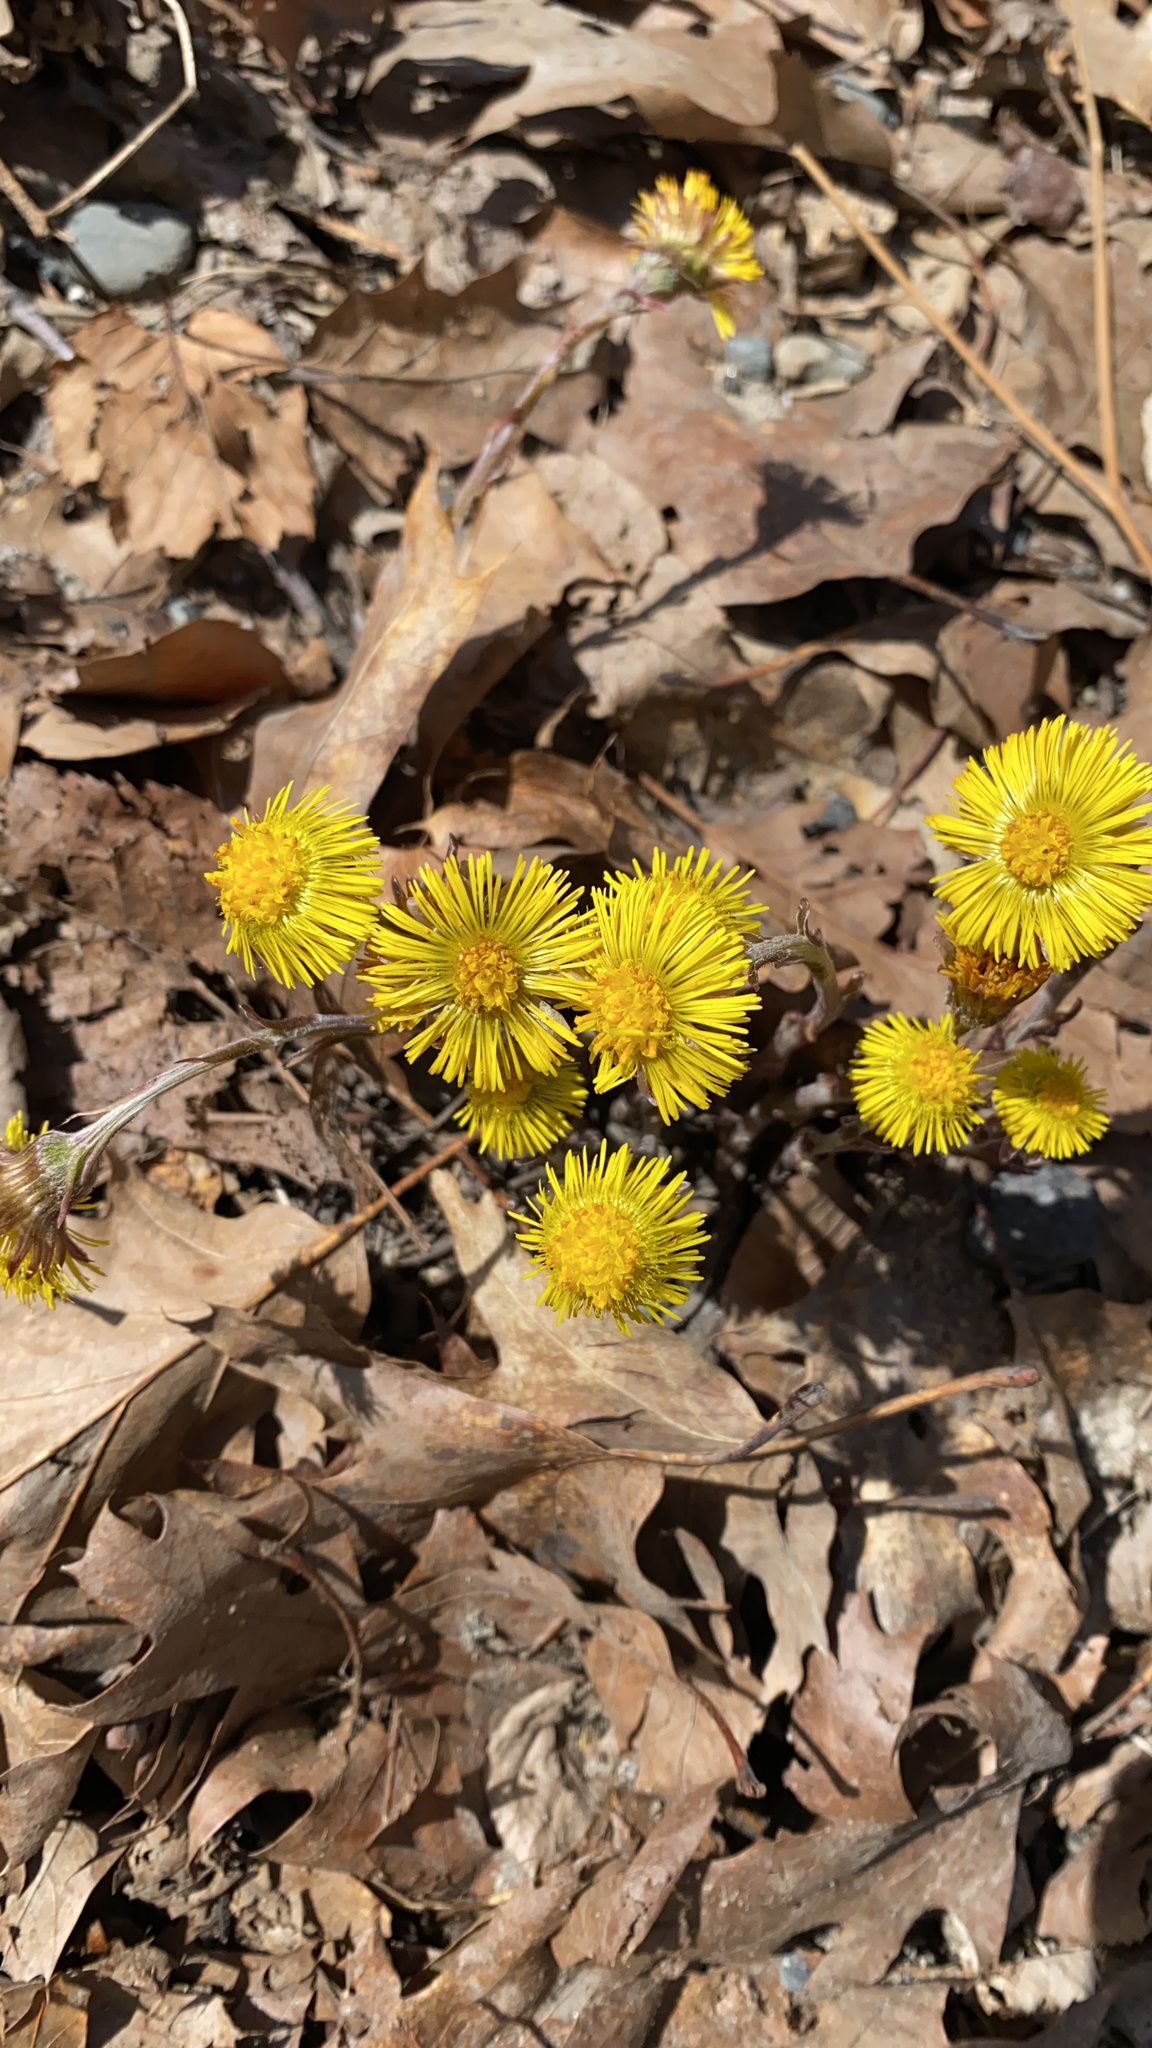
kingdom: Plantae
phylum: Tracheophyta
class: Magnoliopsida
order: Asterales
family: Asteraceae
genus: Tussilago
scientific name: Tussilago farfara
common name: Coltsfoot
